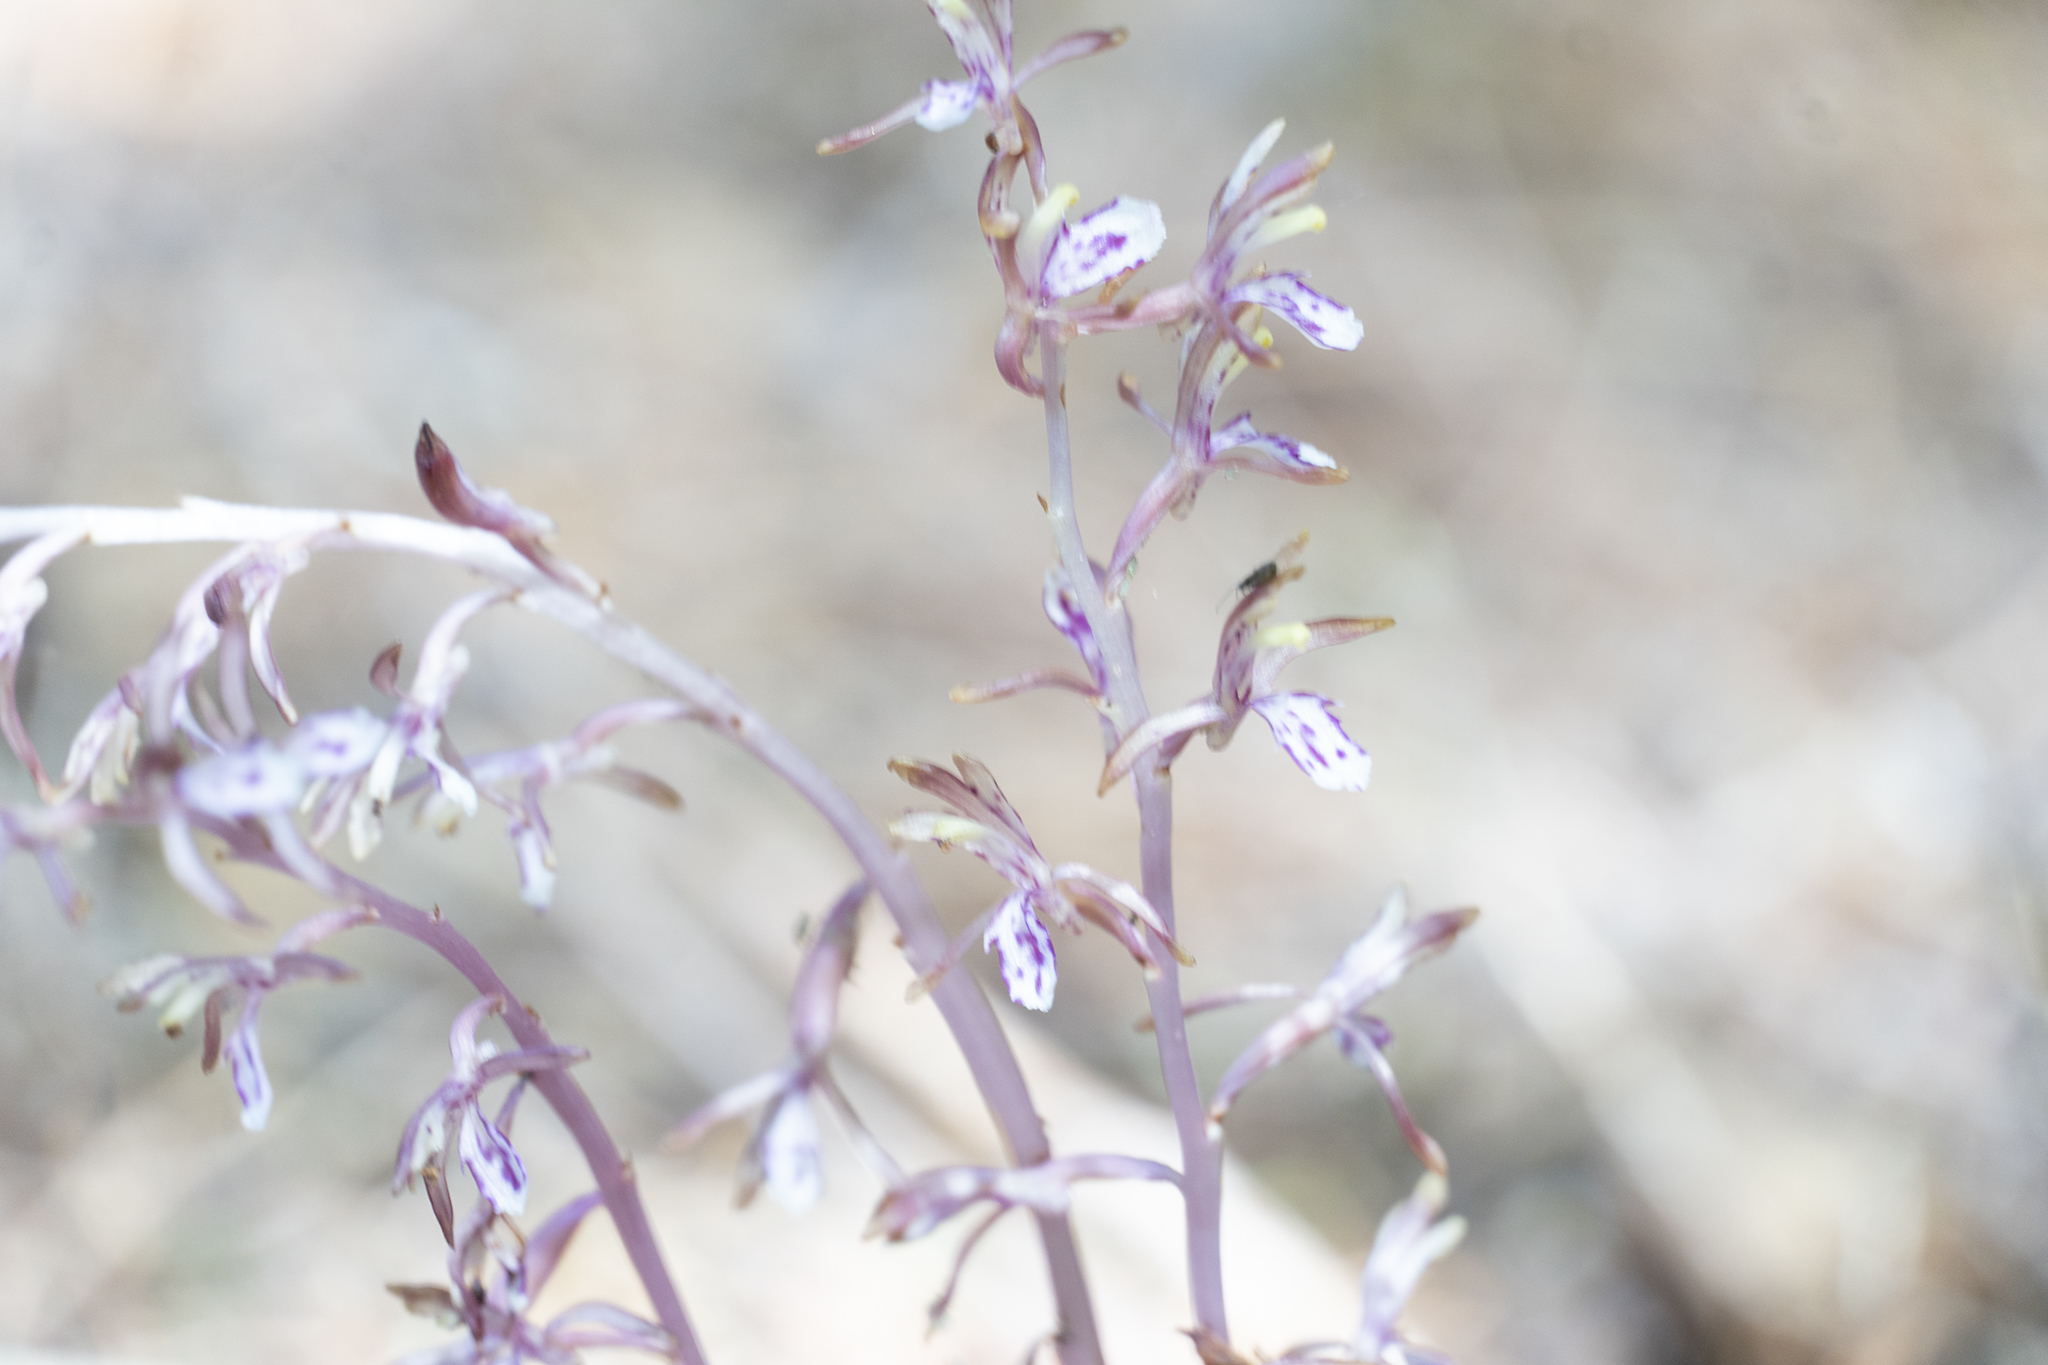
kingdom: Plantae
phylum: Tracheophyta
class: Liliopsida
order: Asparagales
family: Orchidaceae
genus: Corallorhiza
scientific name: Corallorhiza mertensiana
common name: Pacific coralroot
